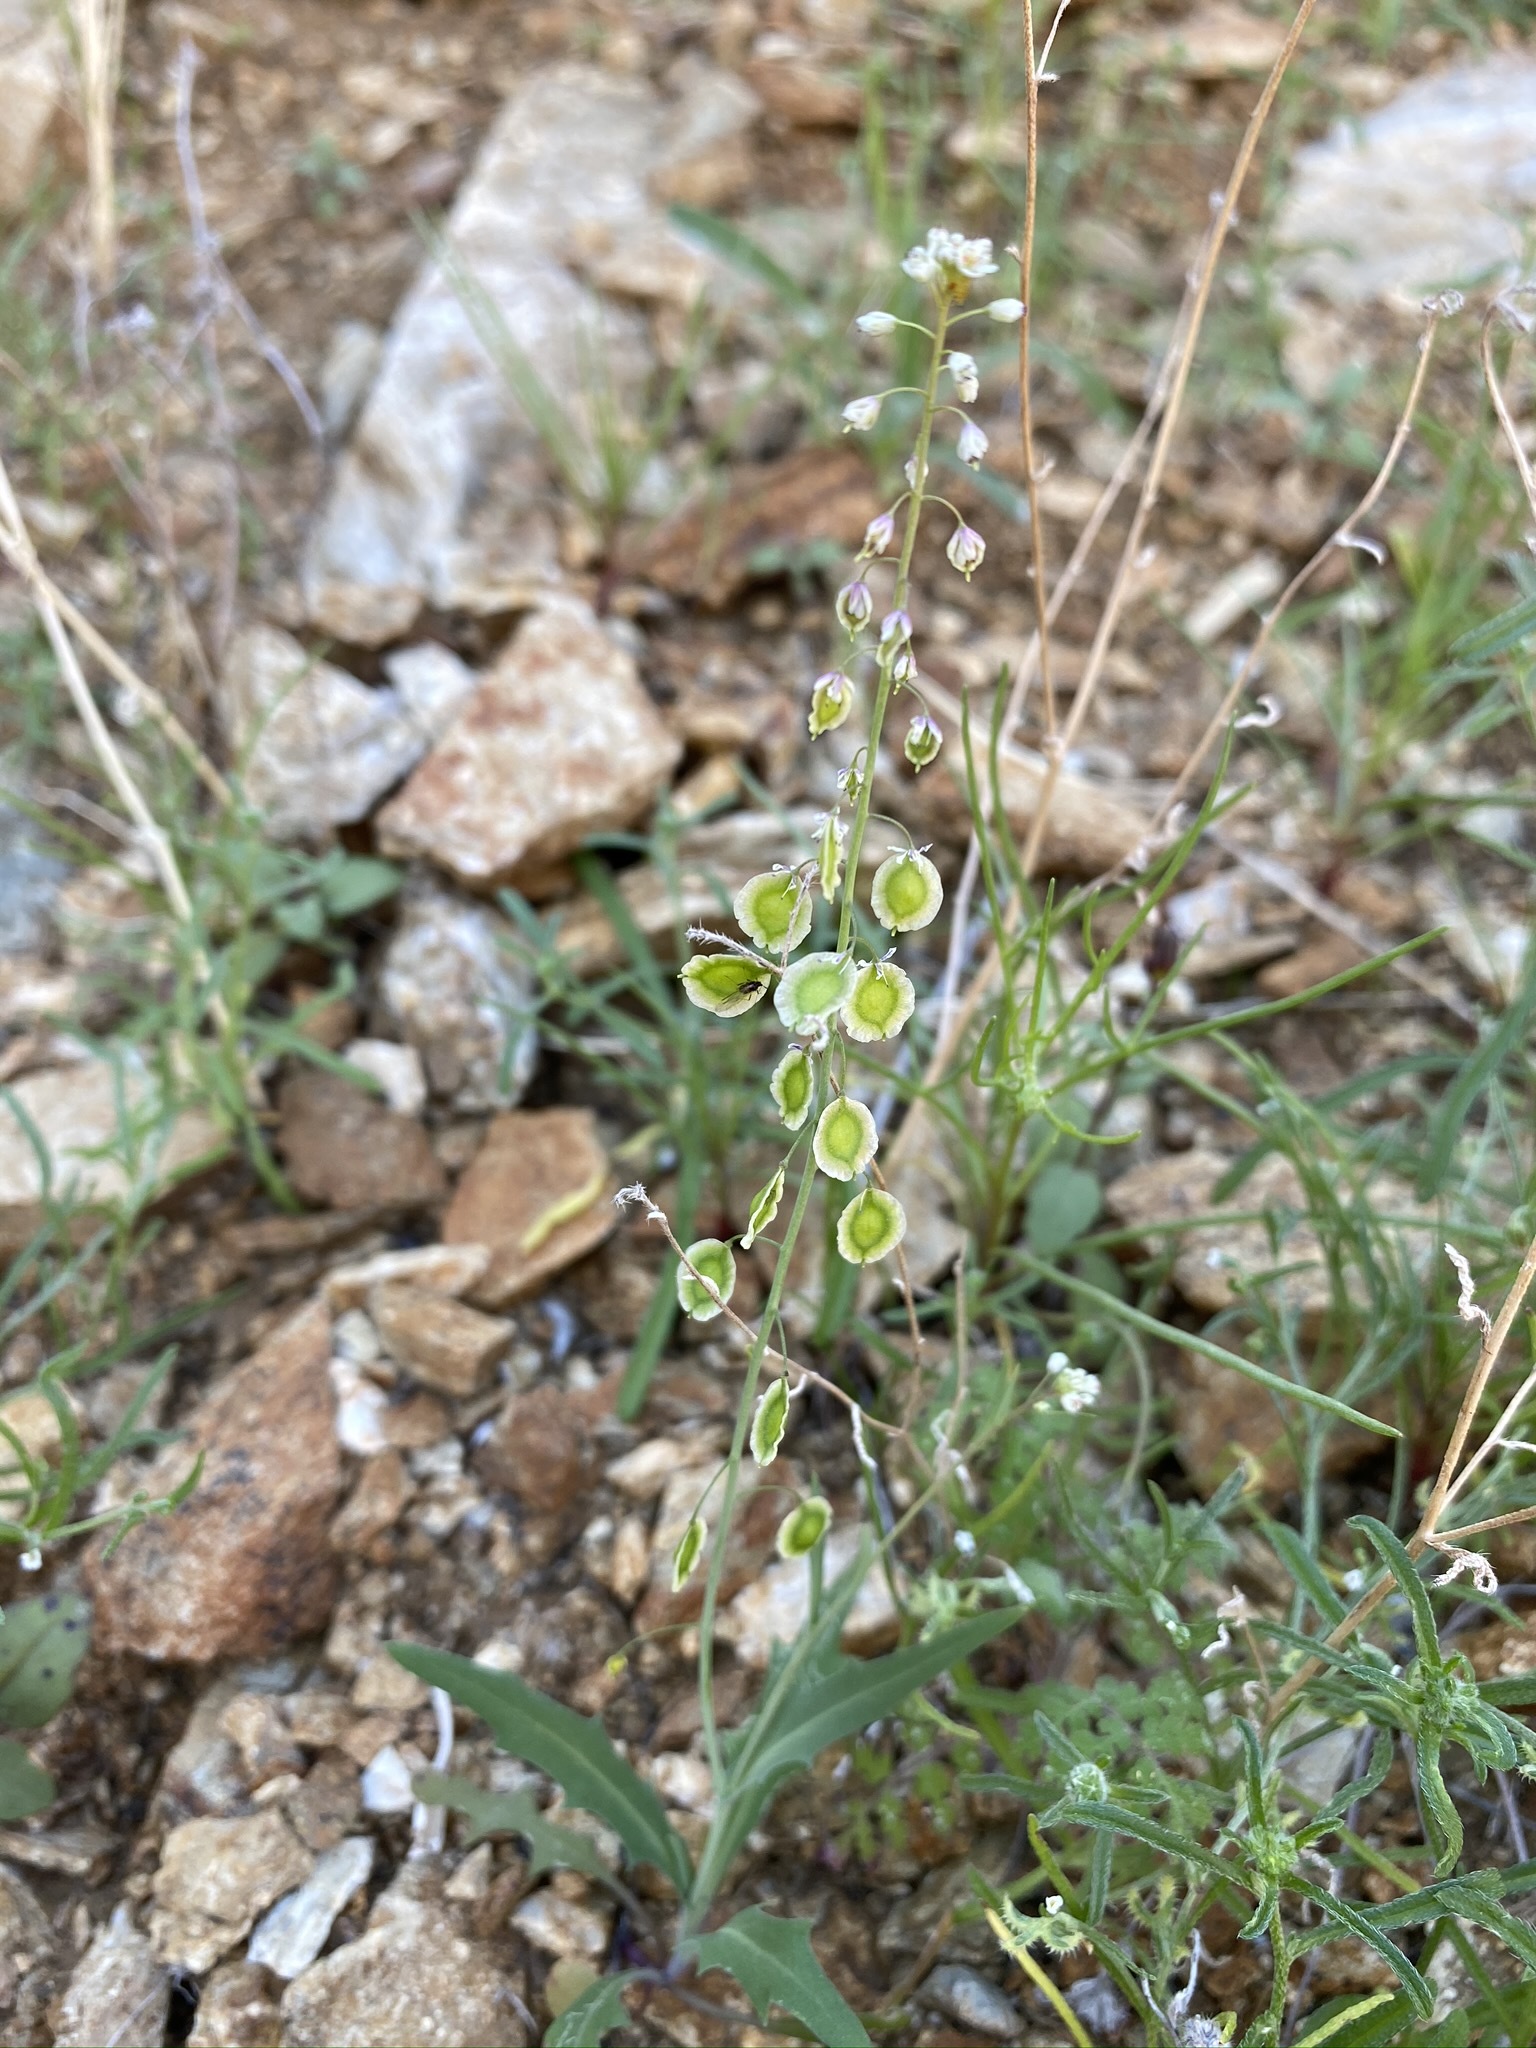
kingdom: Plantae
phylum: Tracheophyta
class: Magnoliopsida
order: Brassicales
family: Brassicaceae
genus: Thysanocarpus
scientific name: Thysanocarpus curvipes
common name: Sand fringepod
